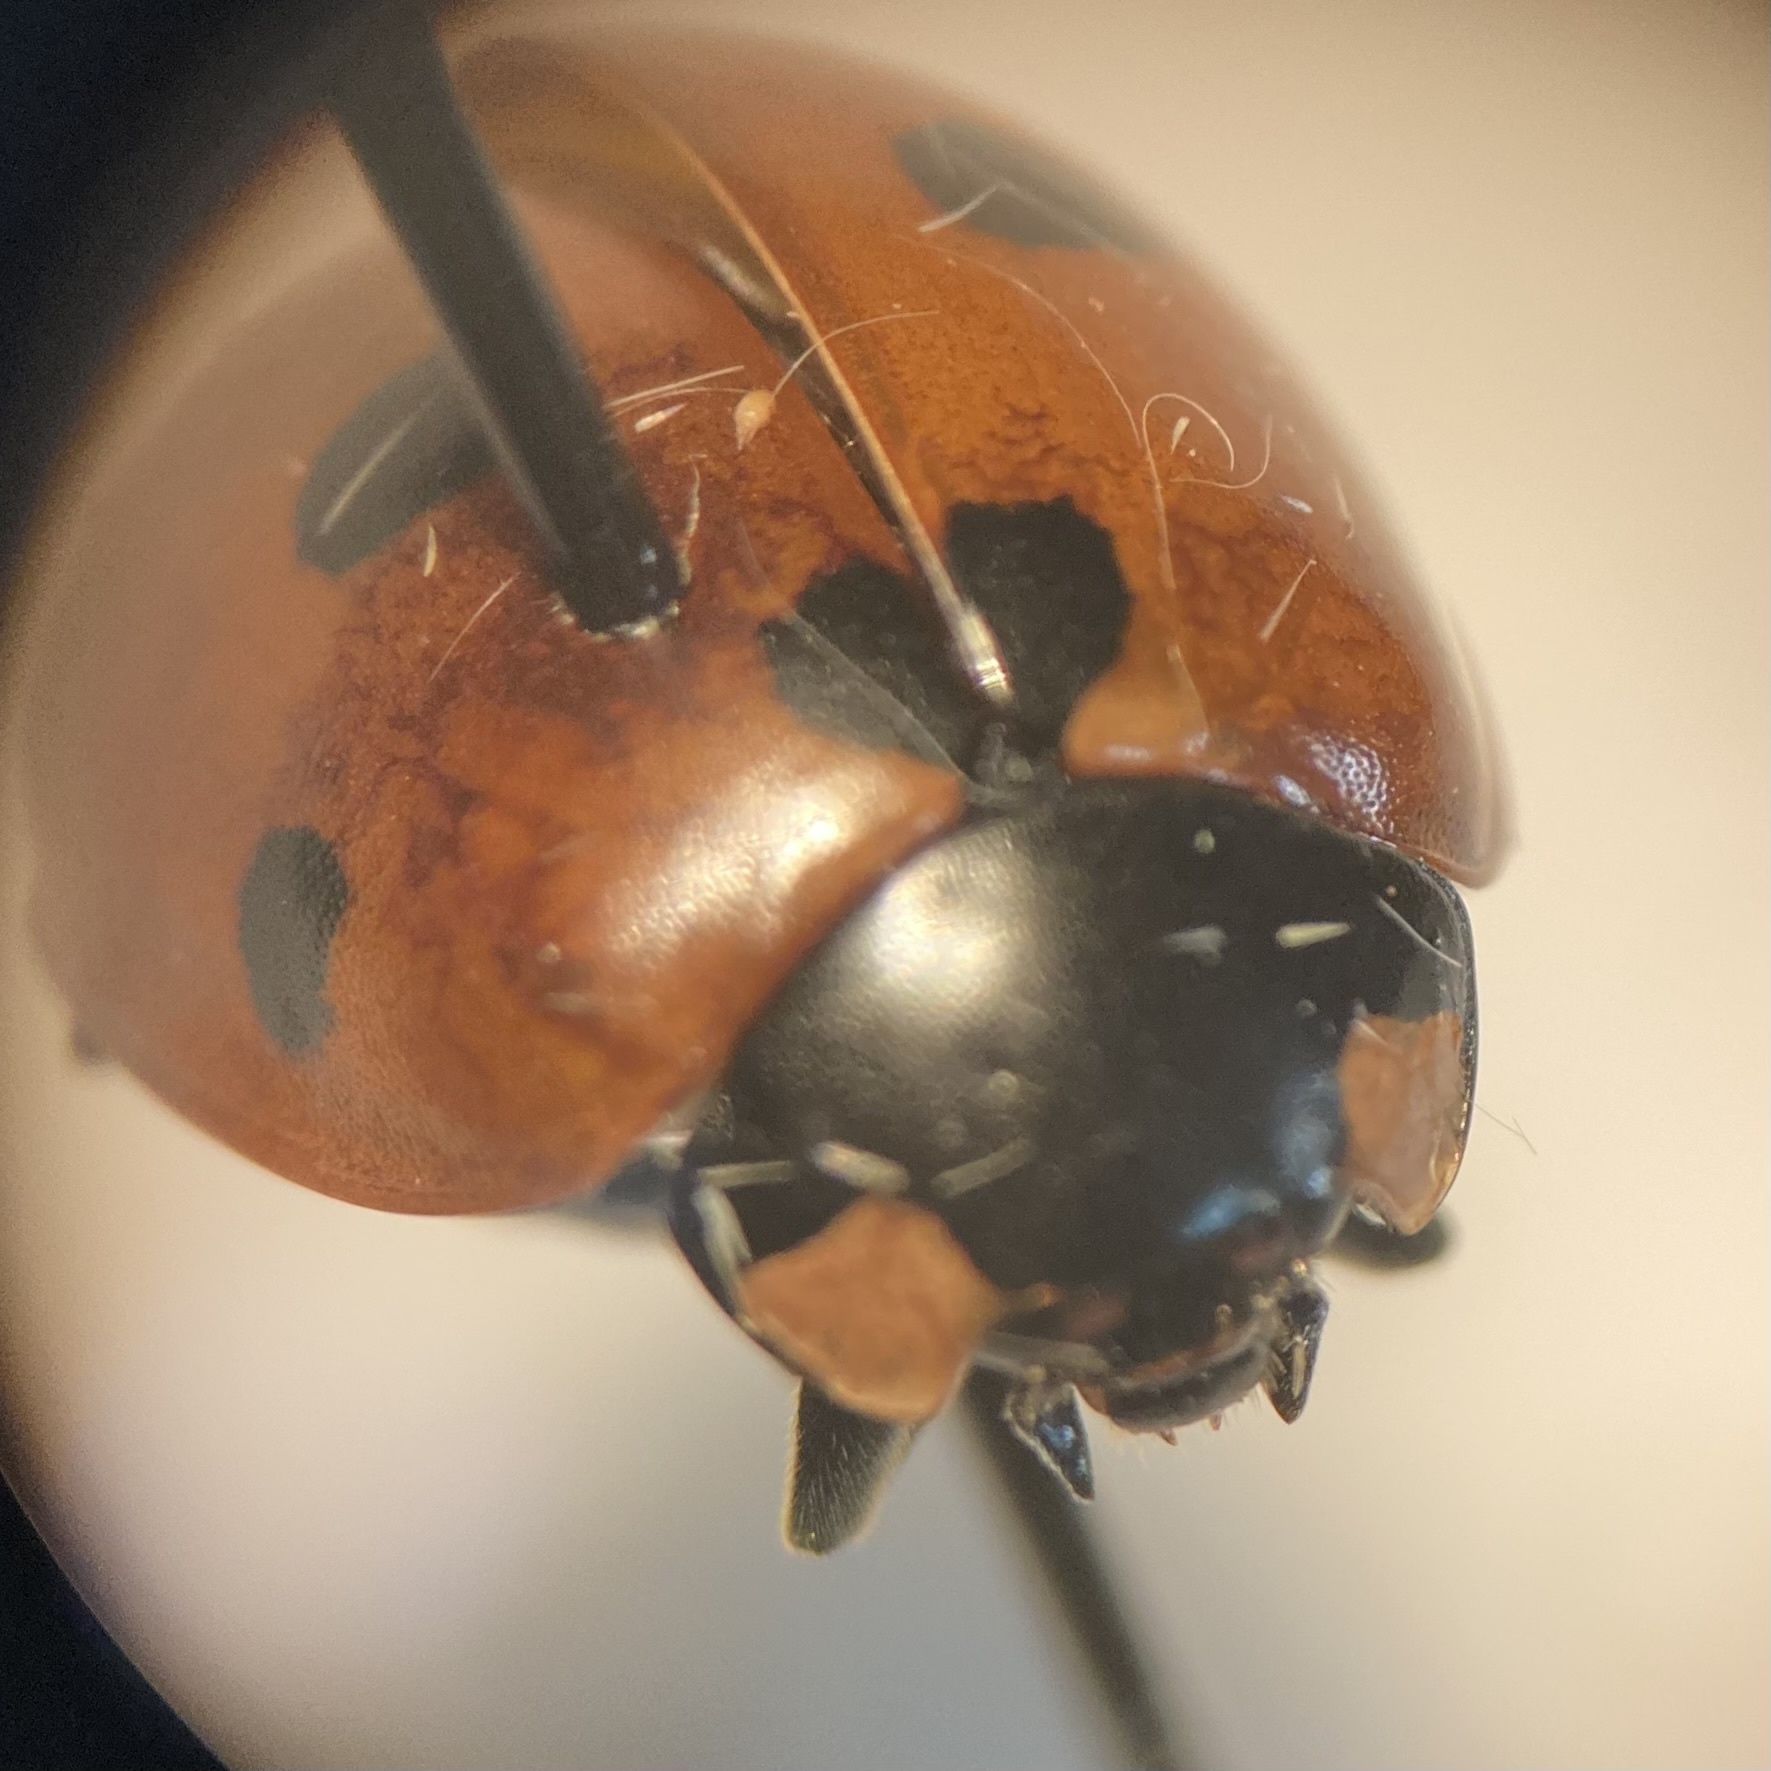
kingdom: Animalia
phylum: Arthropoda
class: Insecta
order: Coleoptera
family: Coccinellidae
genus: Coccinella
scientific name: Coccinella septempunctata
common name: Sevenspotted lady beetle
